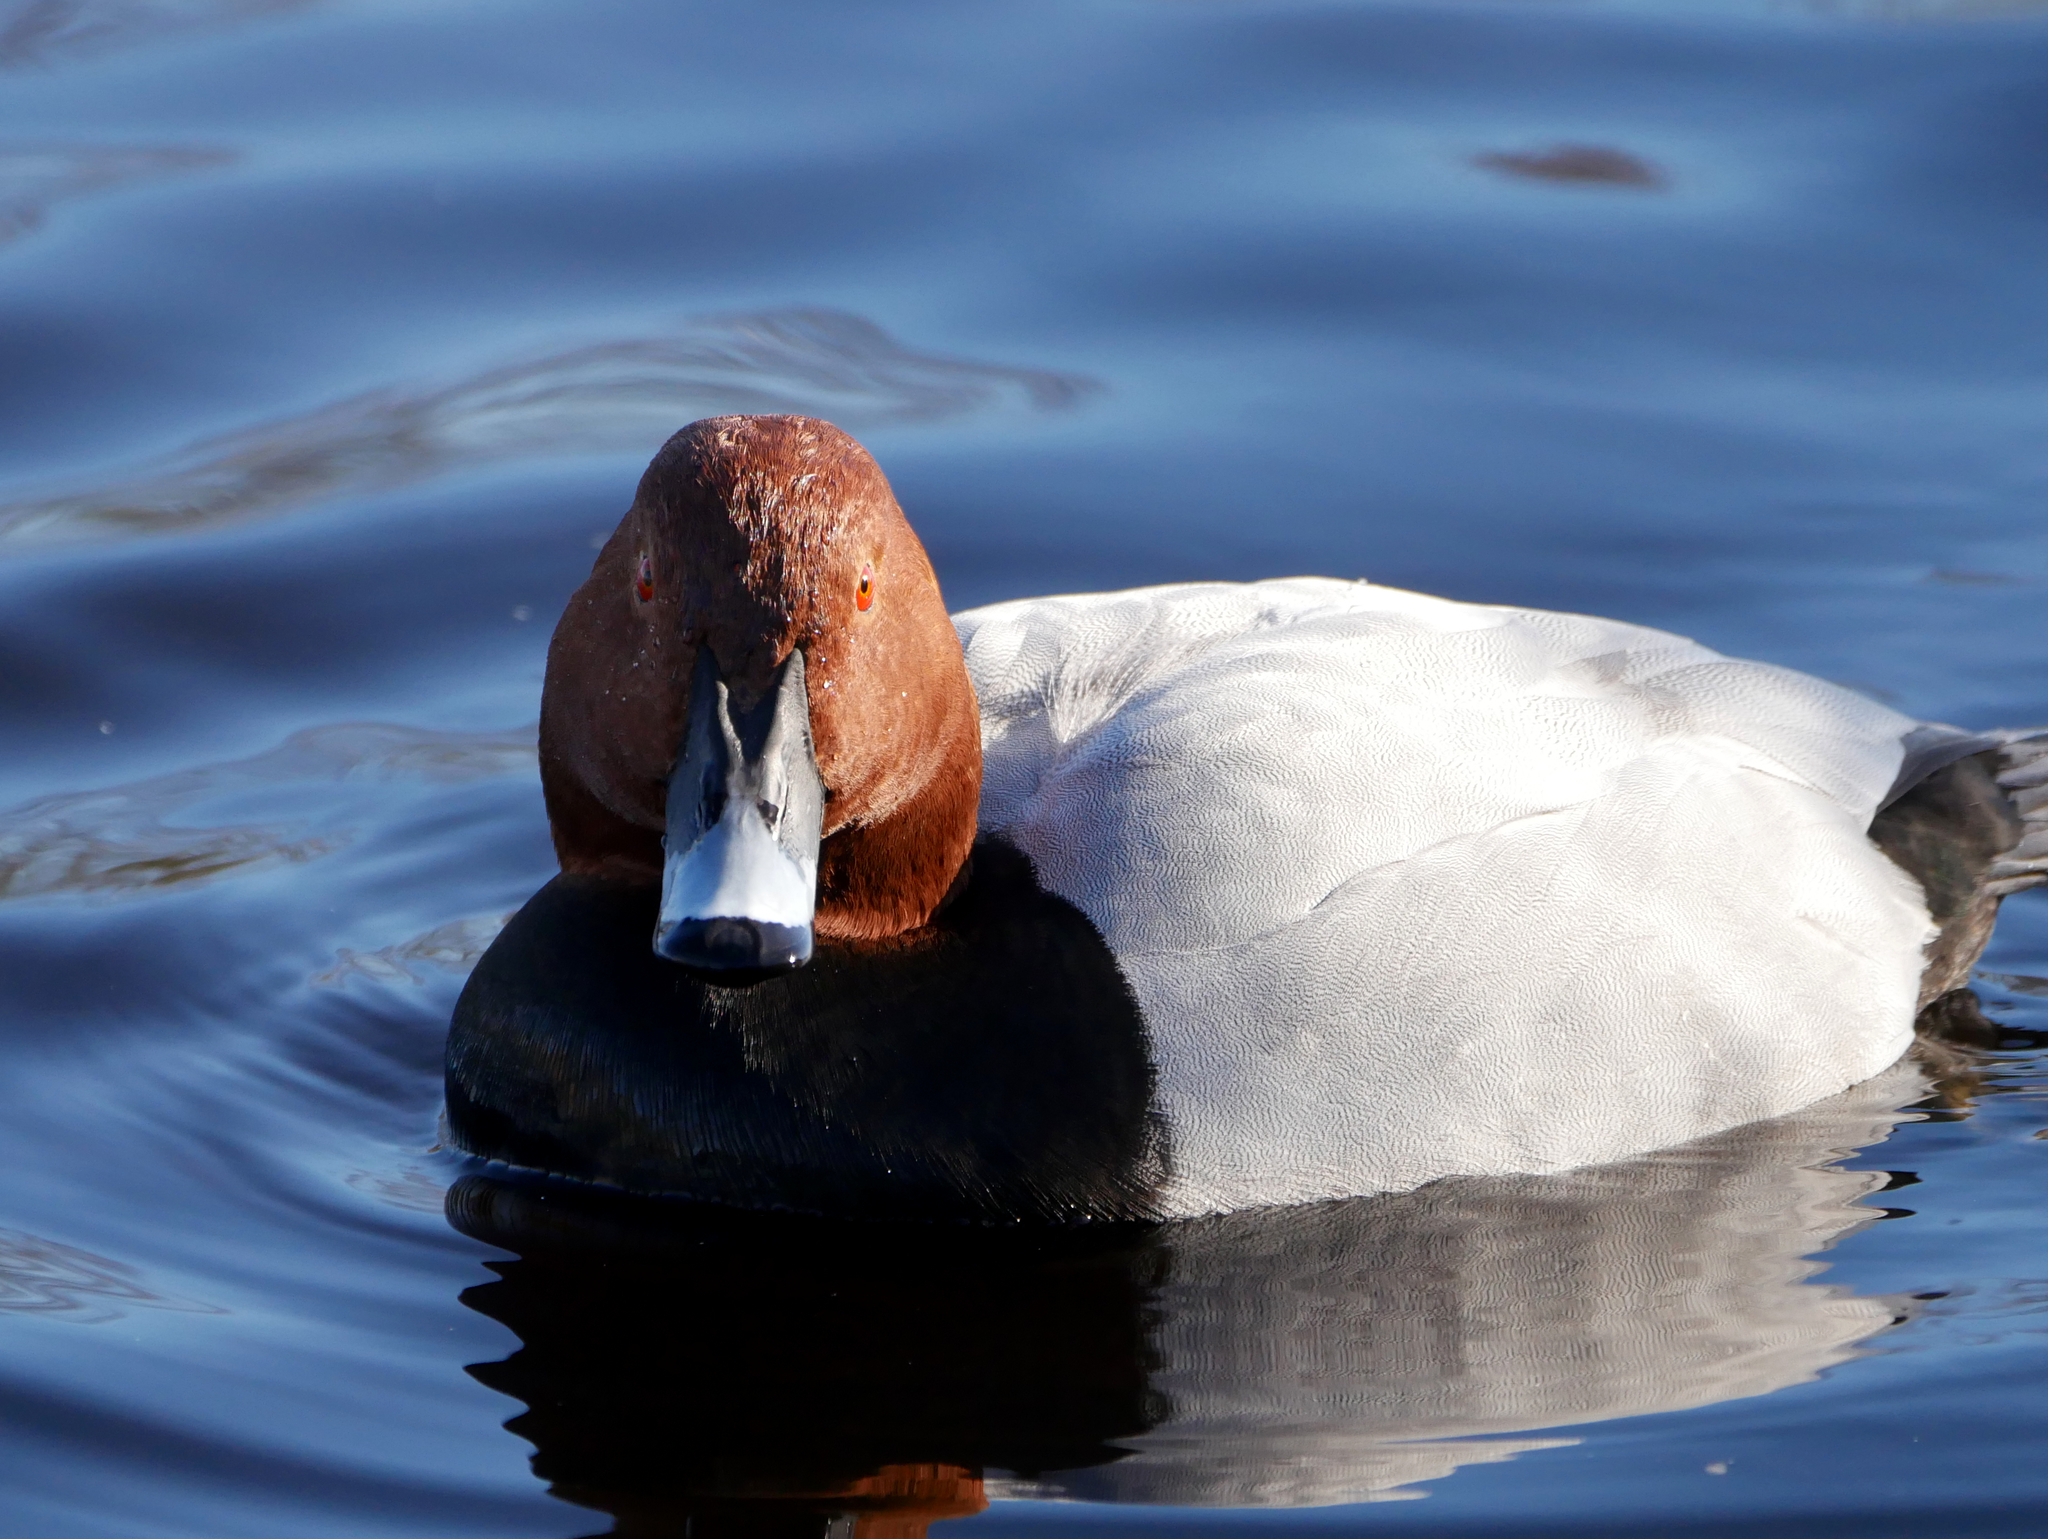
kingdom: Animalia
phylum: Chordata
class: Aves
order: Anseriformes
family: Anatidae
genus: Aythya
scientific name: Aythya ferina
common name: Common pochard
